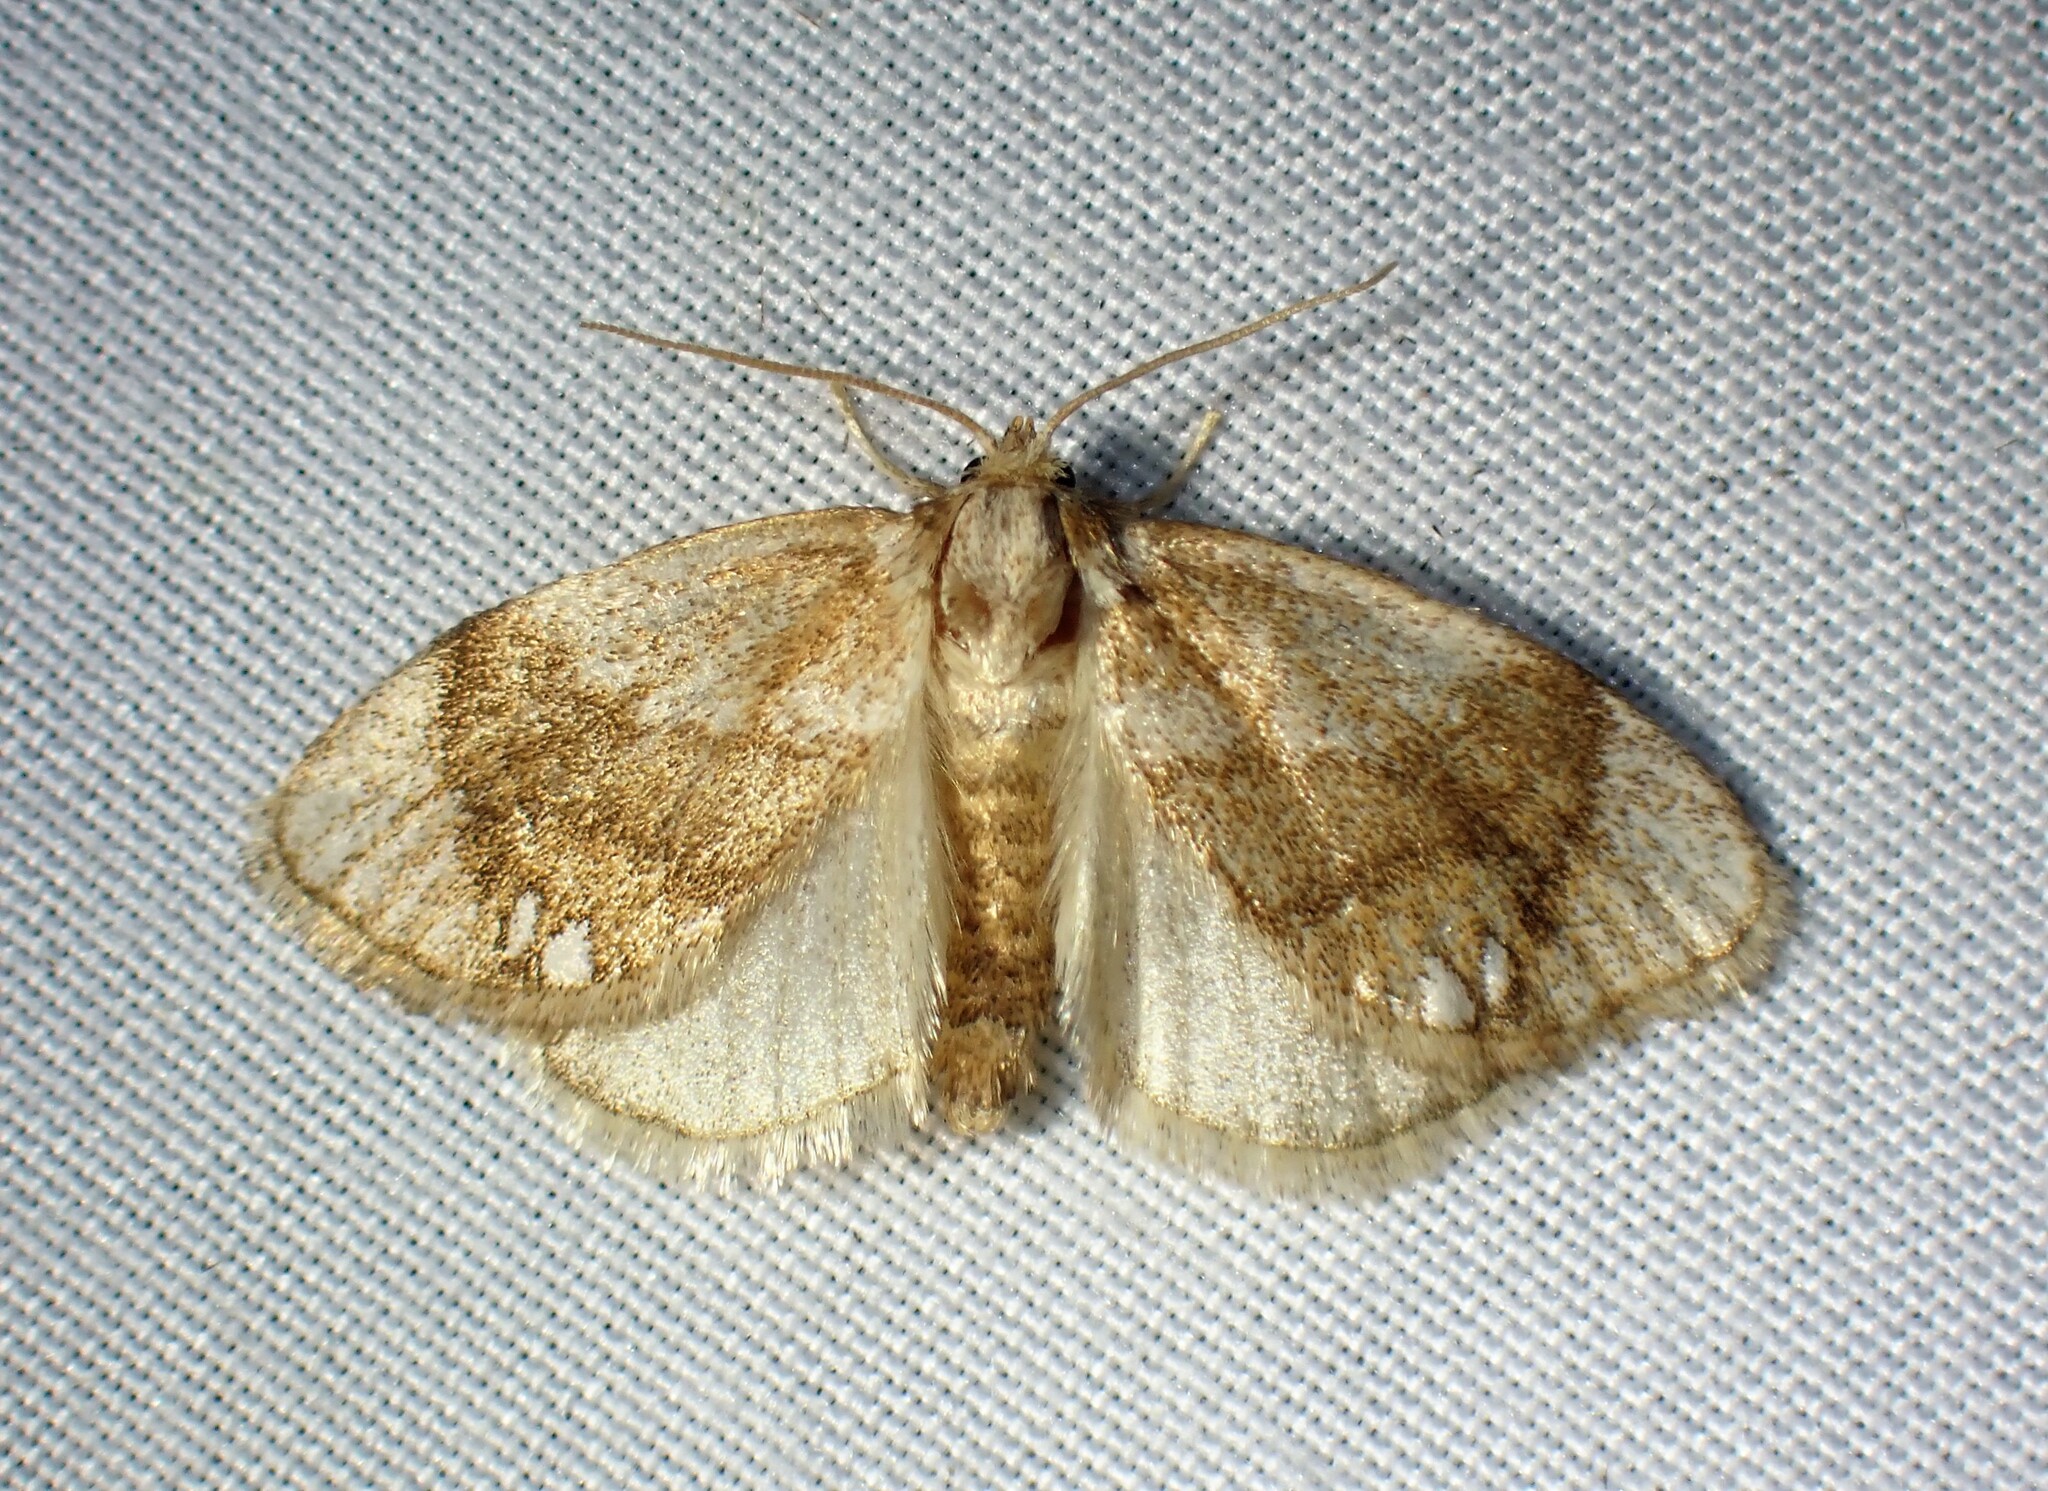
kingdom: Animalia
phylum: Arthropoda
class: Insecta
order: Lepidoptera
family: Limacodidae
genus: Packardia
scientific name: Packardia geminata
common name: Jeweled tailed slug moth
